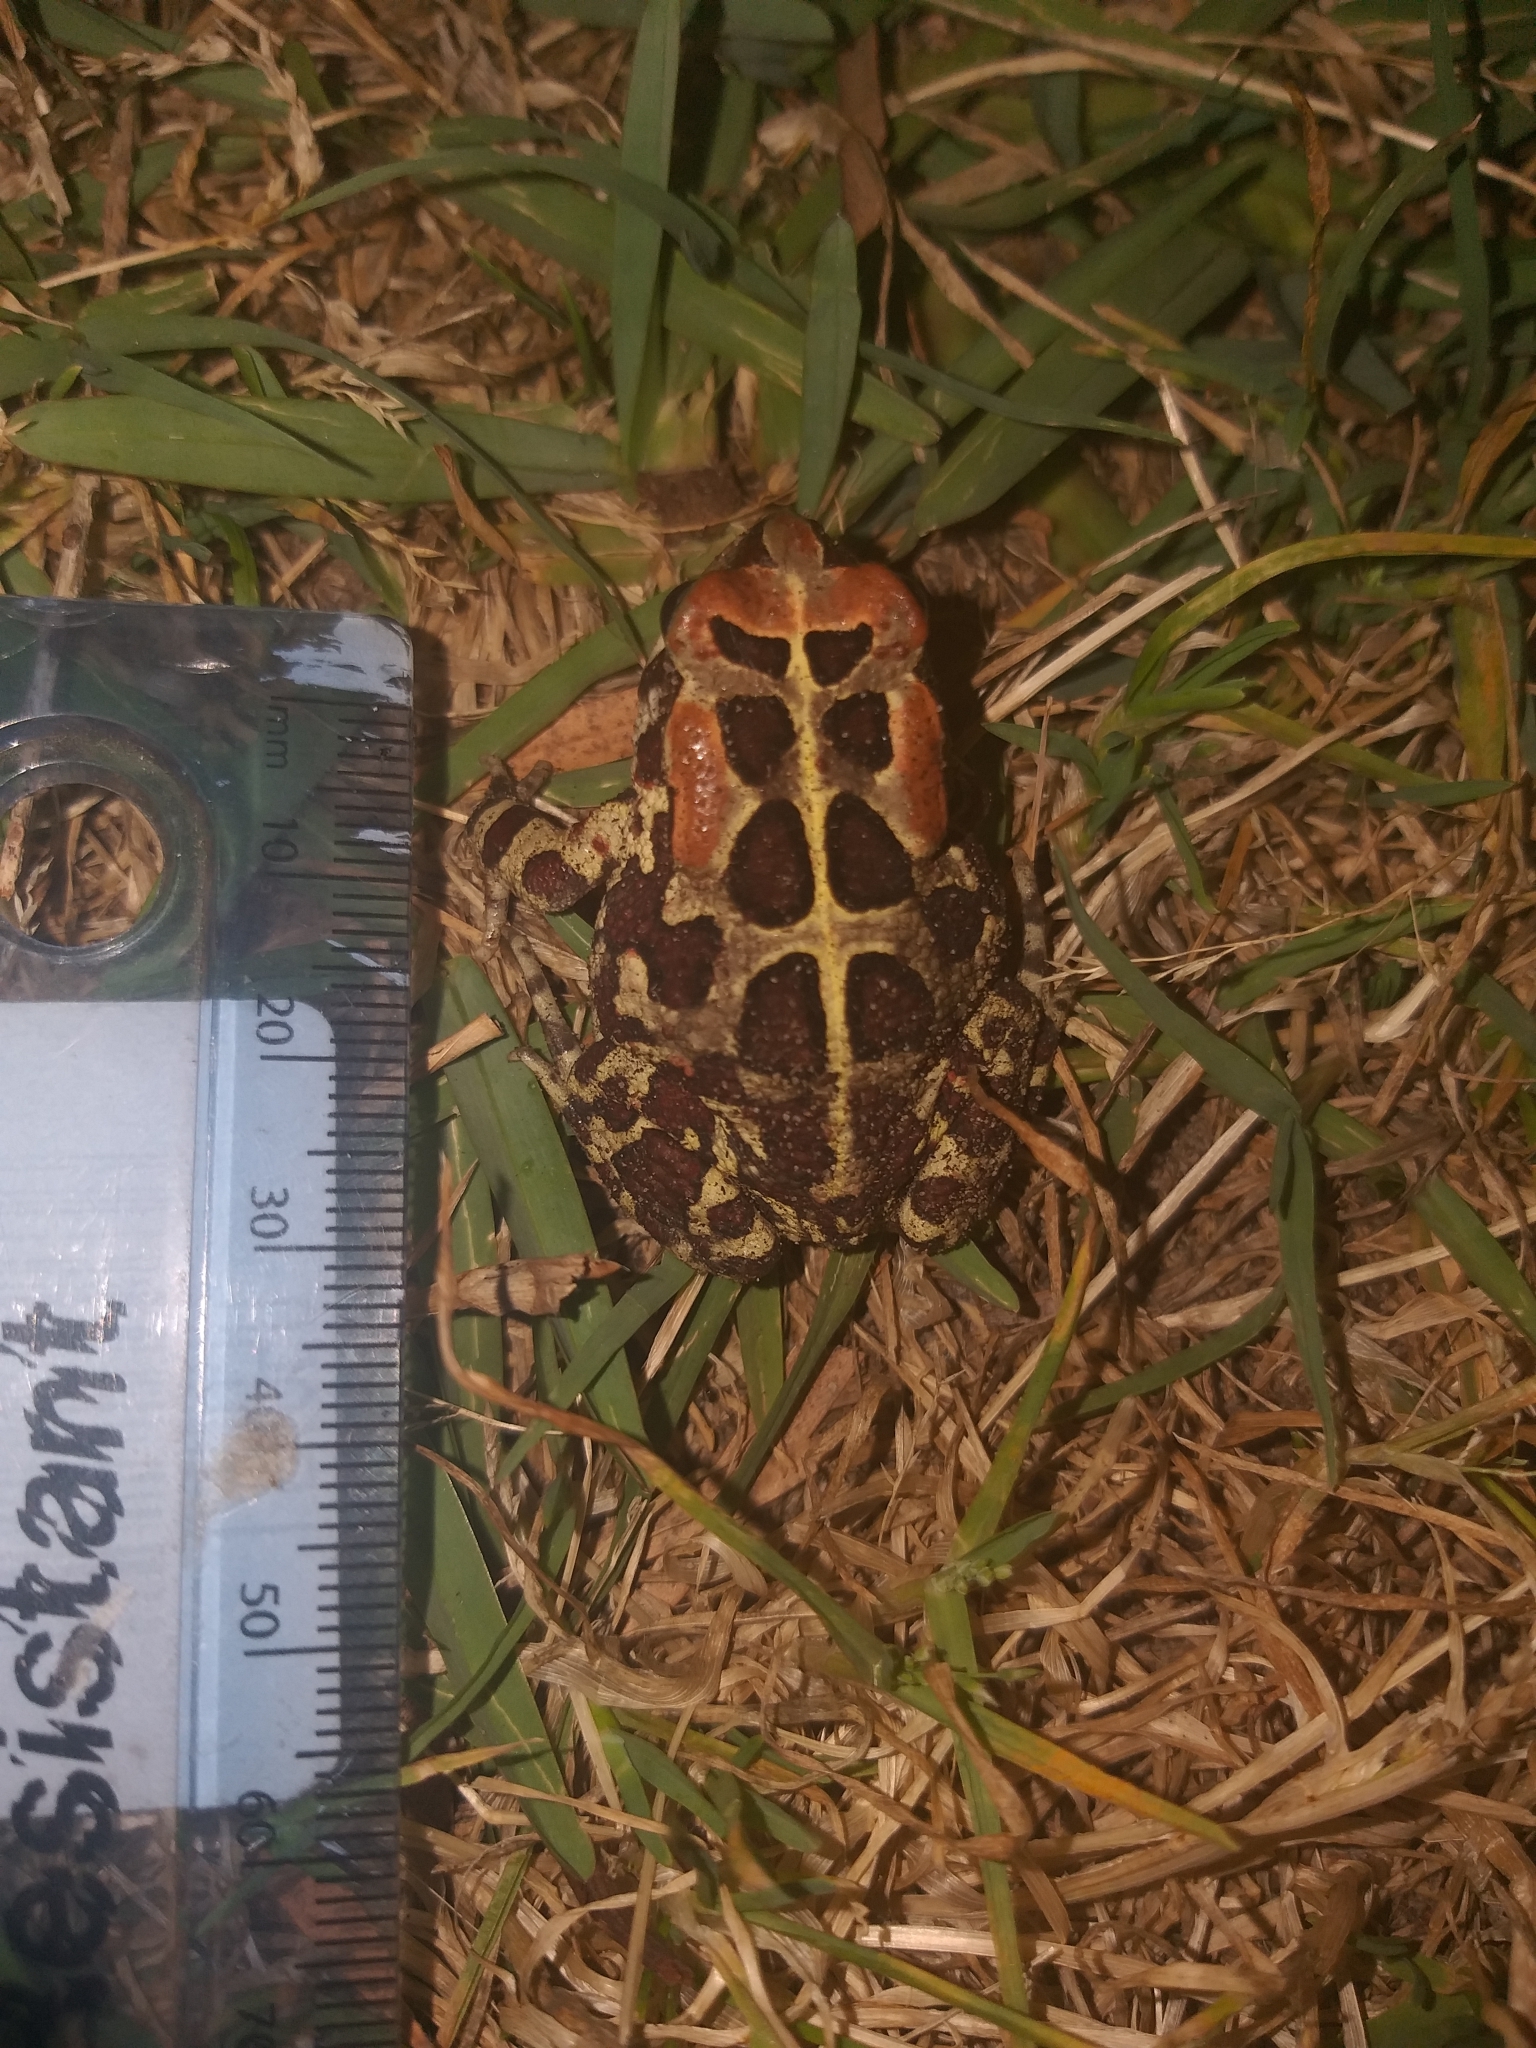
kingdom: Animalia
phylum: Chordata
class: Amphibia
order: Anura
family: Bufonidae
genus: Sclerophrys
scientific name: Sclerophrys pantherina
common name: Panther toad
